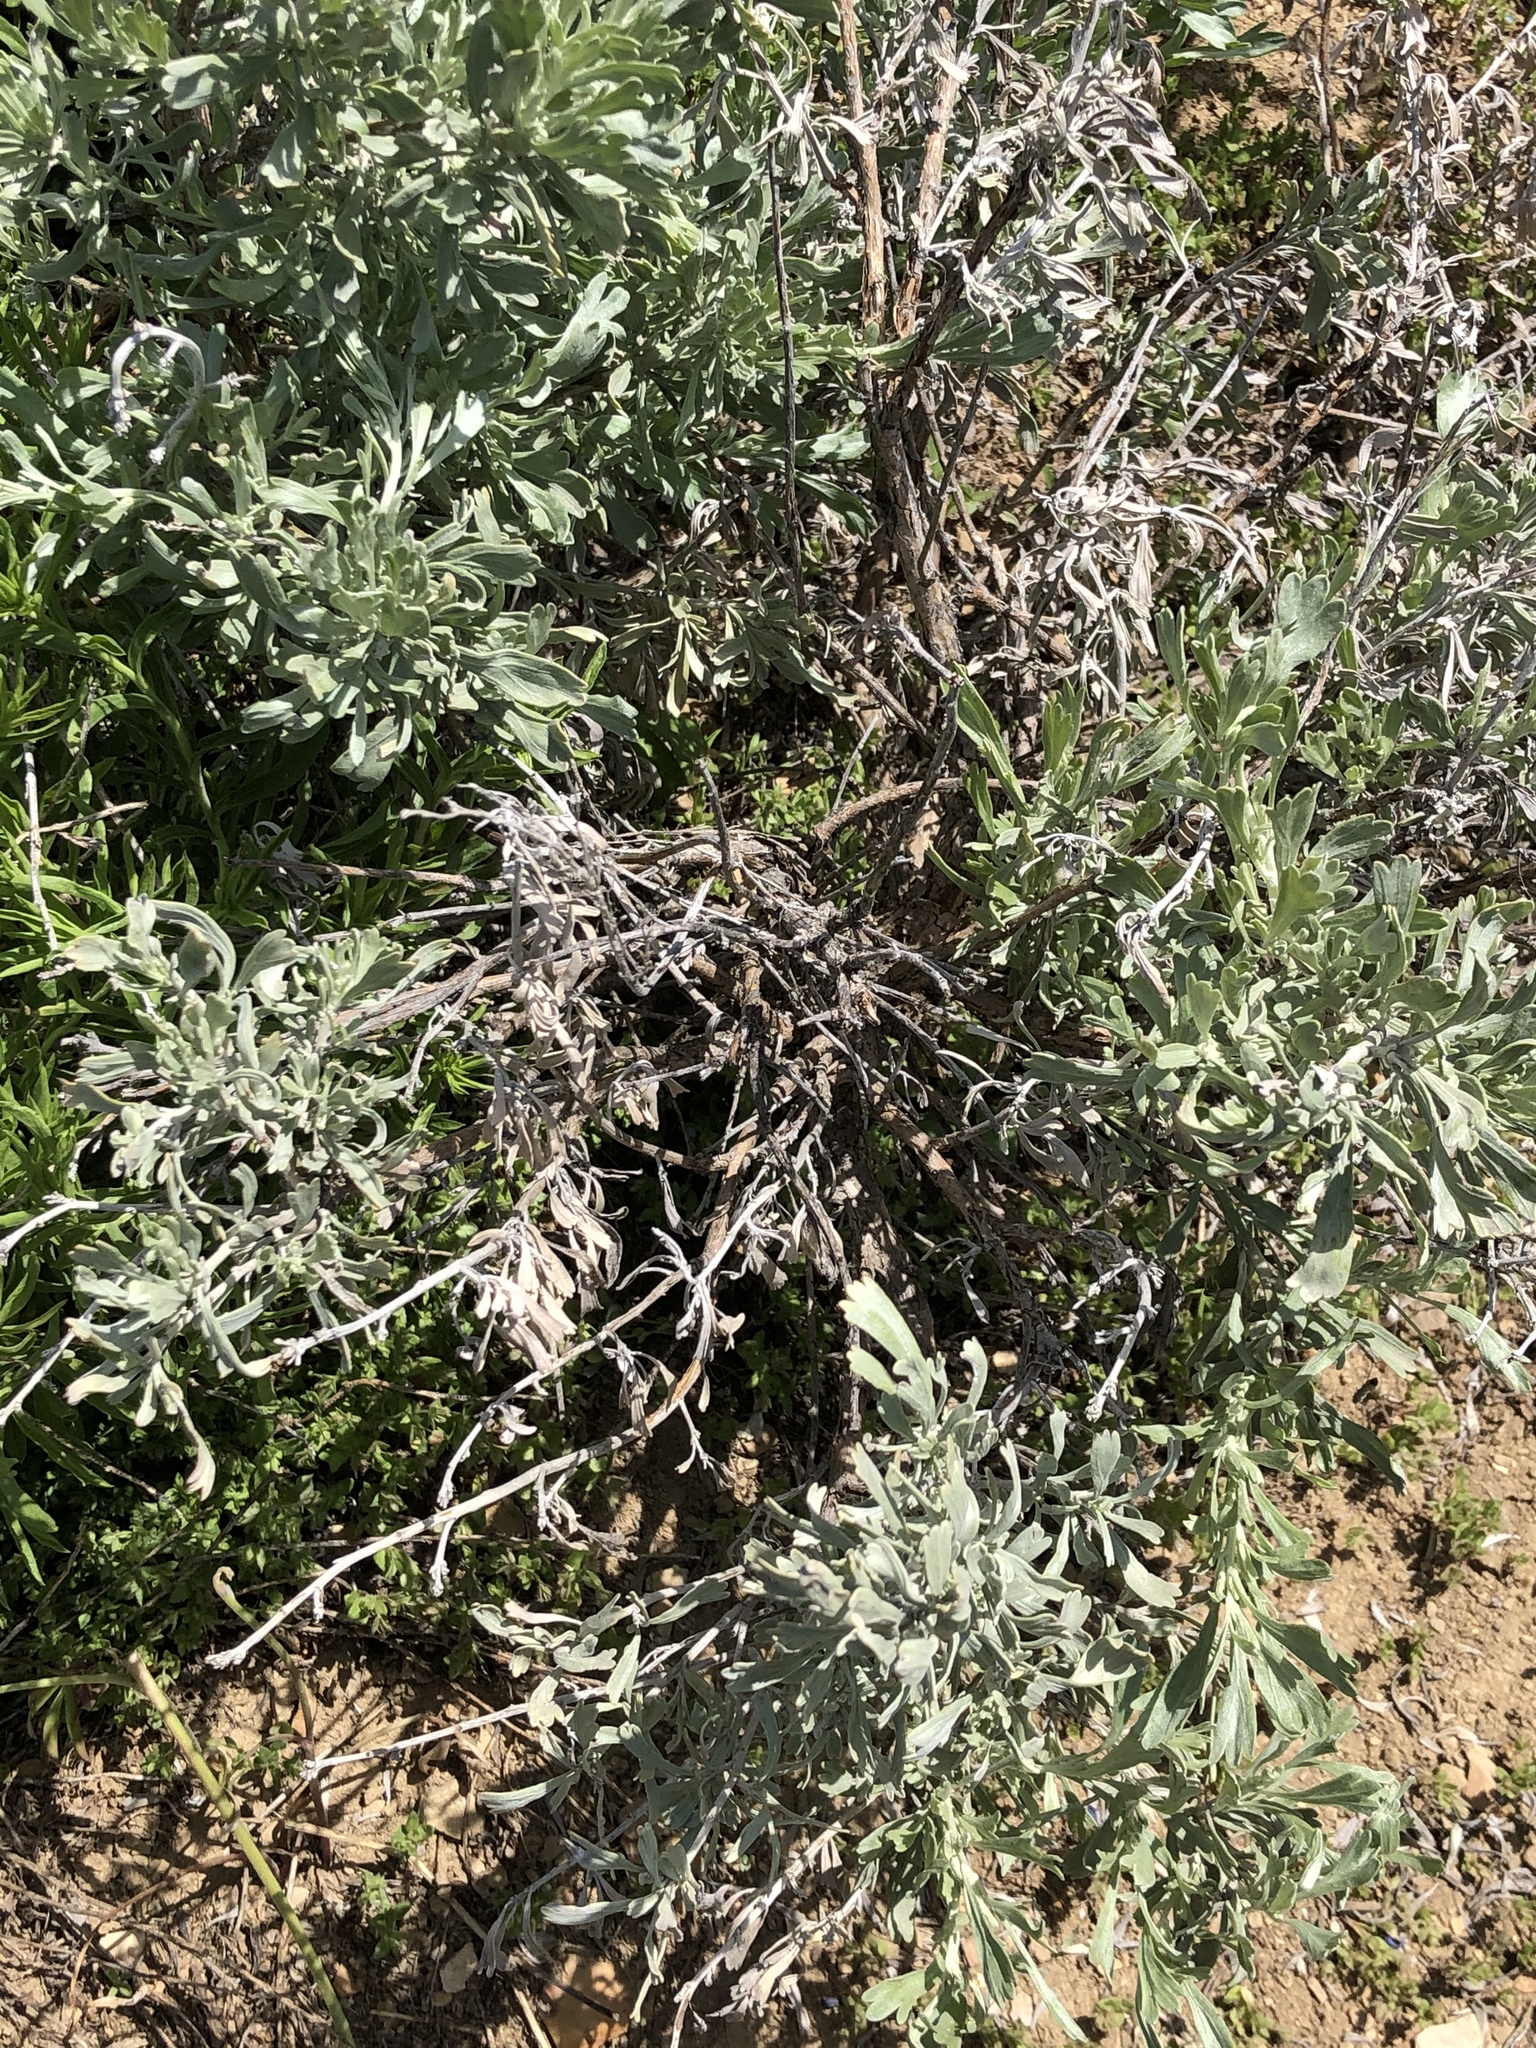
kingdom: Plantae
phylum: Tracheophyta
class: Magnoliopsida
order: Asterales
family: Asteraceae
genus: Artemisia
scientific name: Artemisia tridentata
